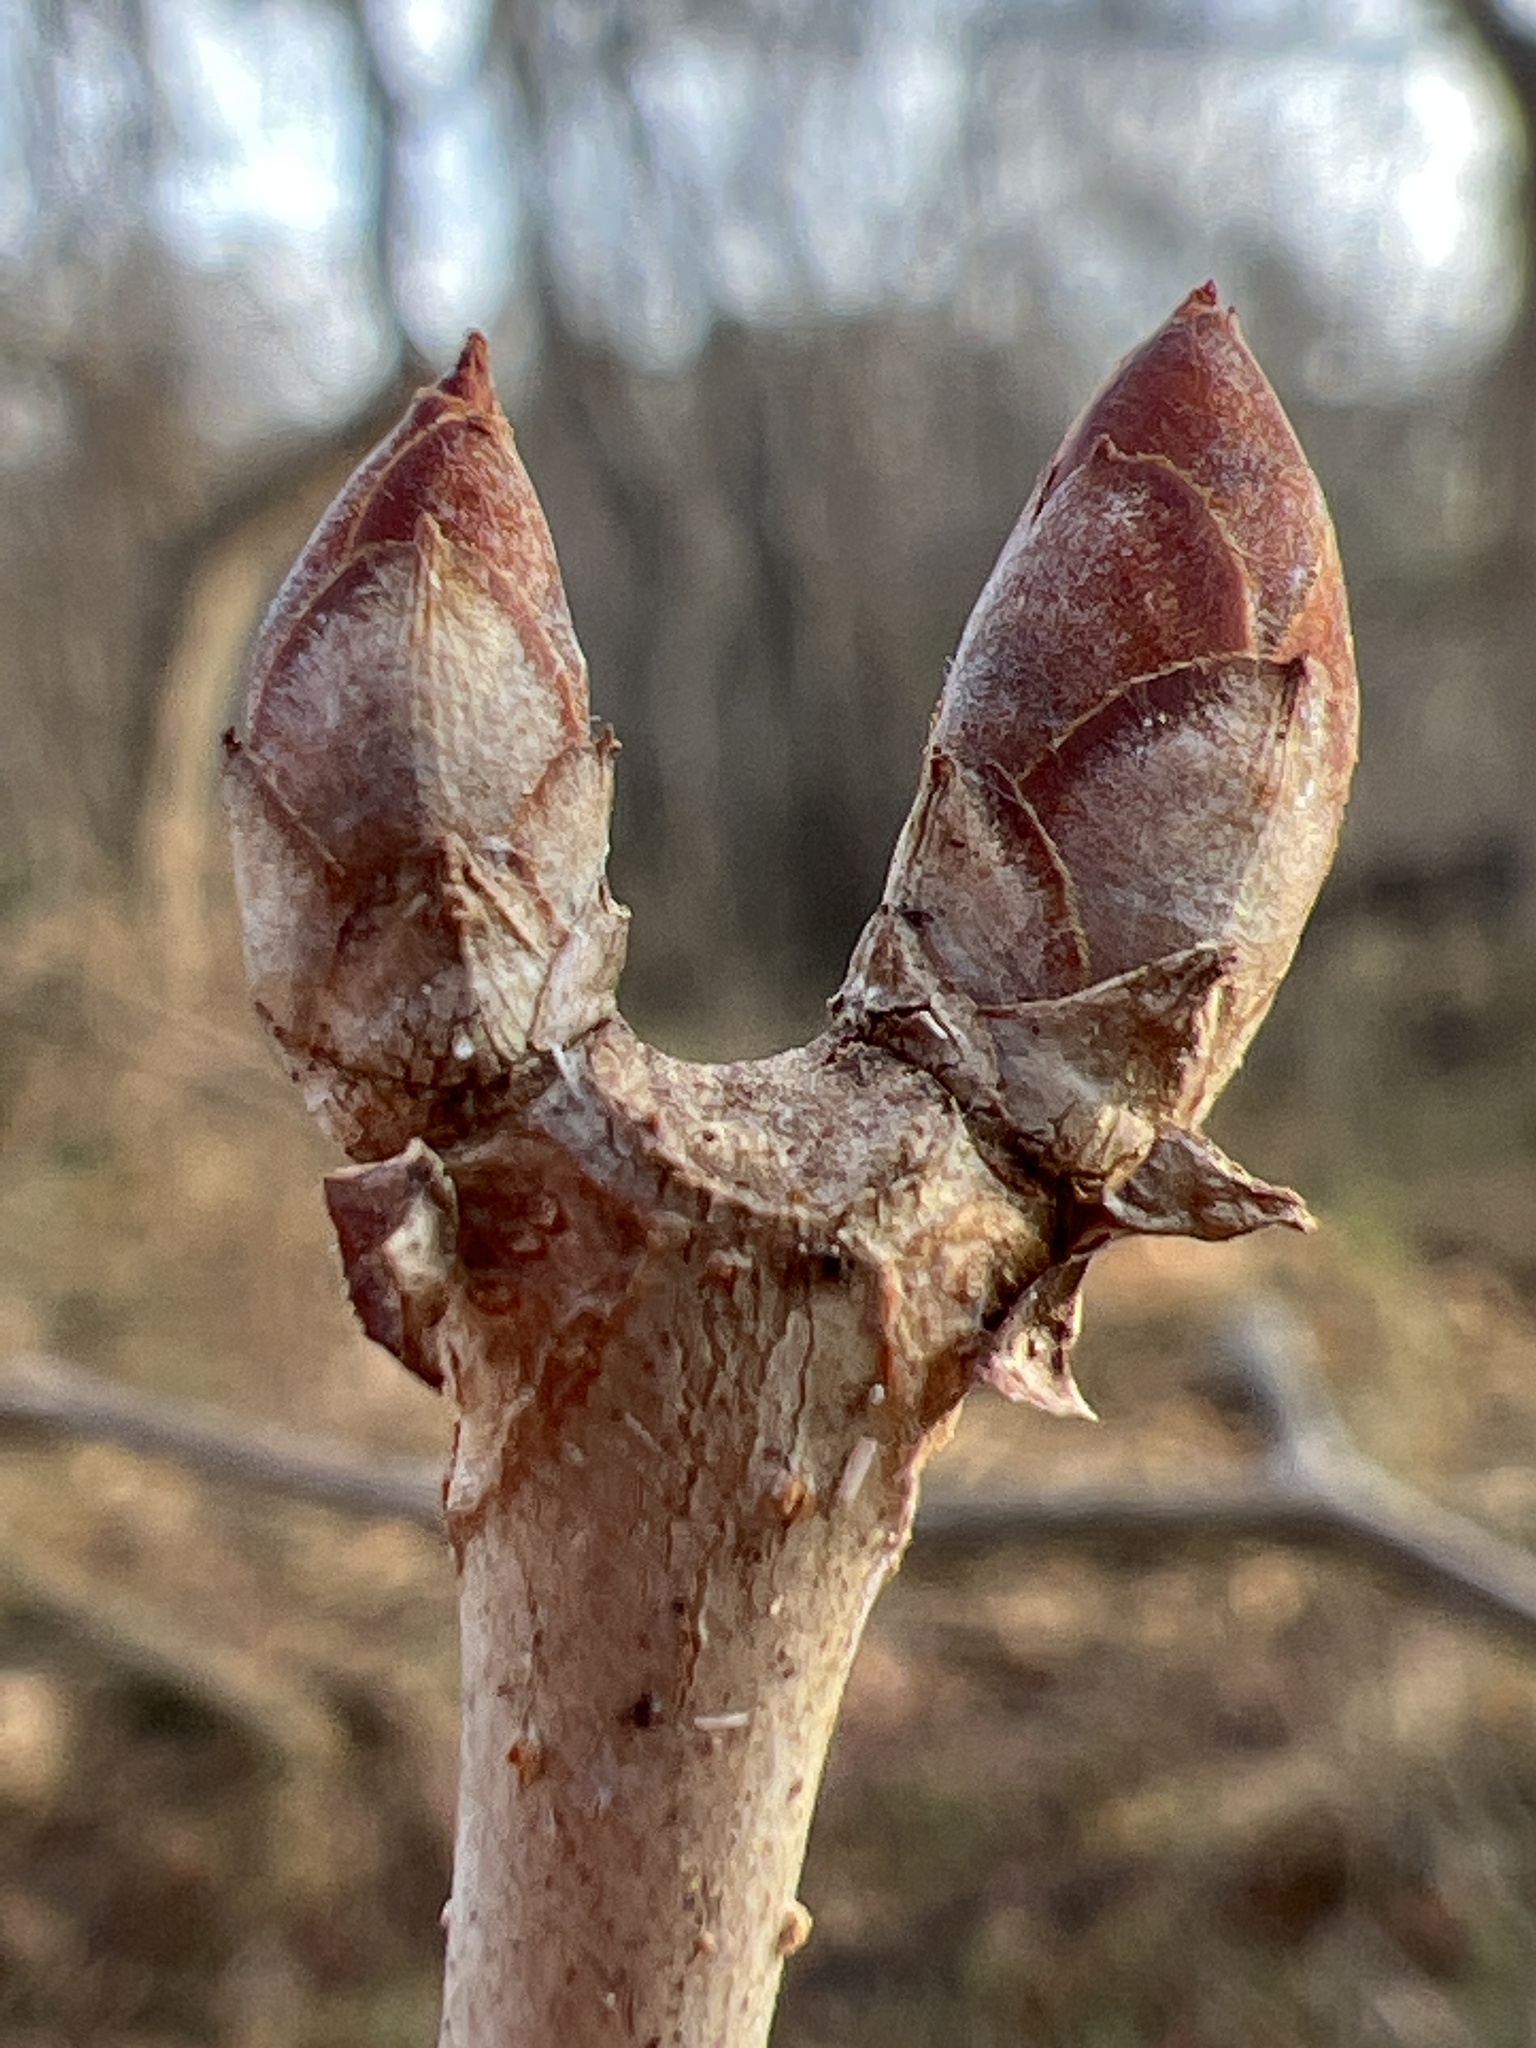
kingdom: Plantae
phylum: Tracheophyta
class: Magnoliopsida
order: Sapindales
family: Sapindaceae
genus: Aesculus
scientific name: Aesculus sylvatica
